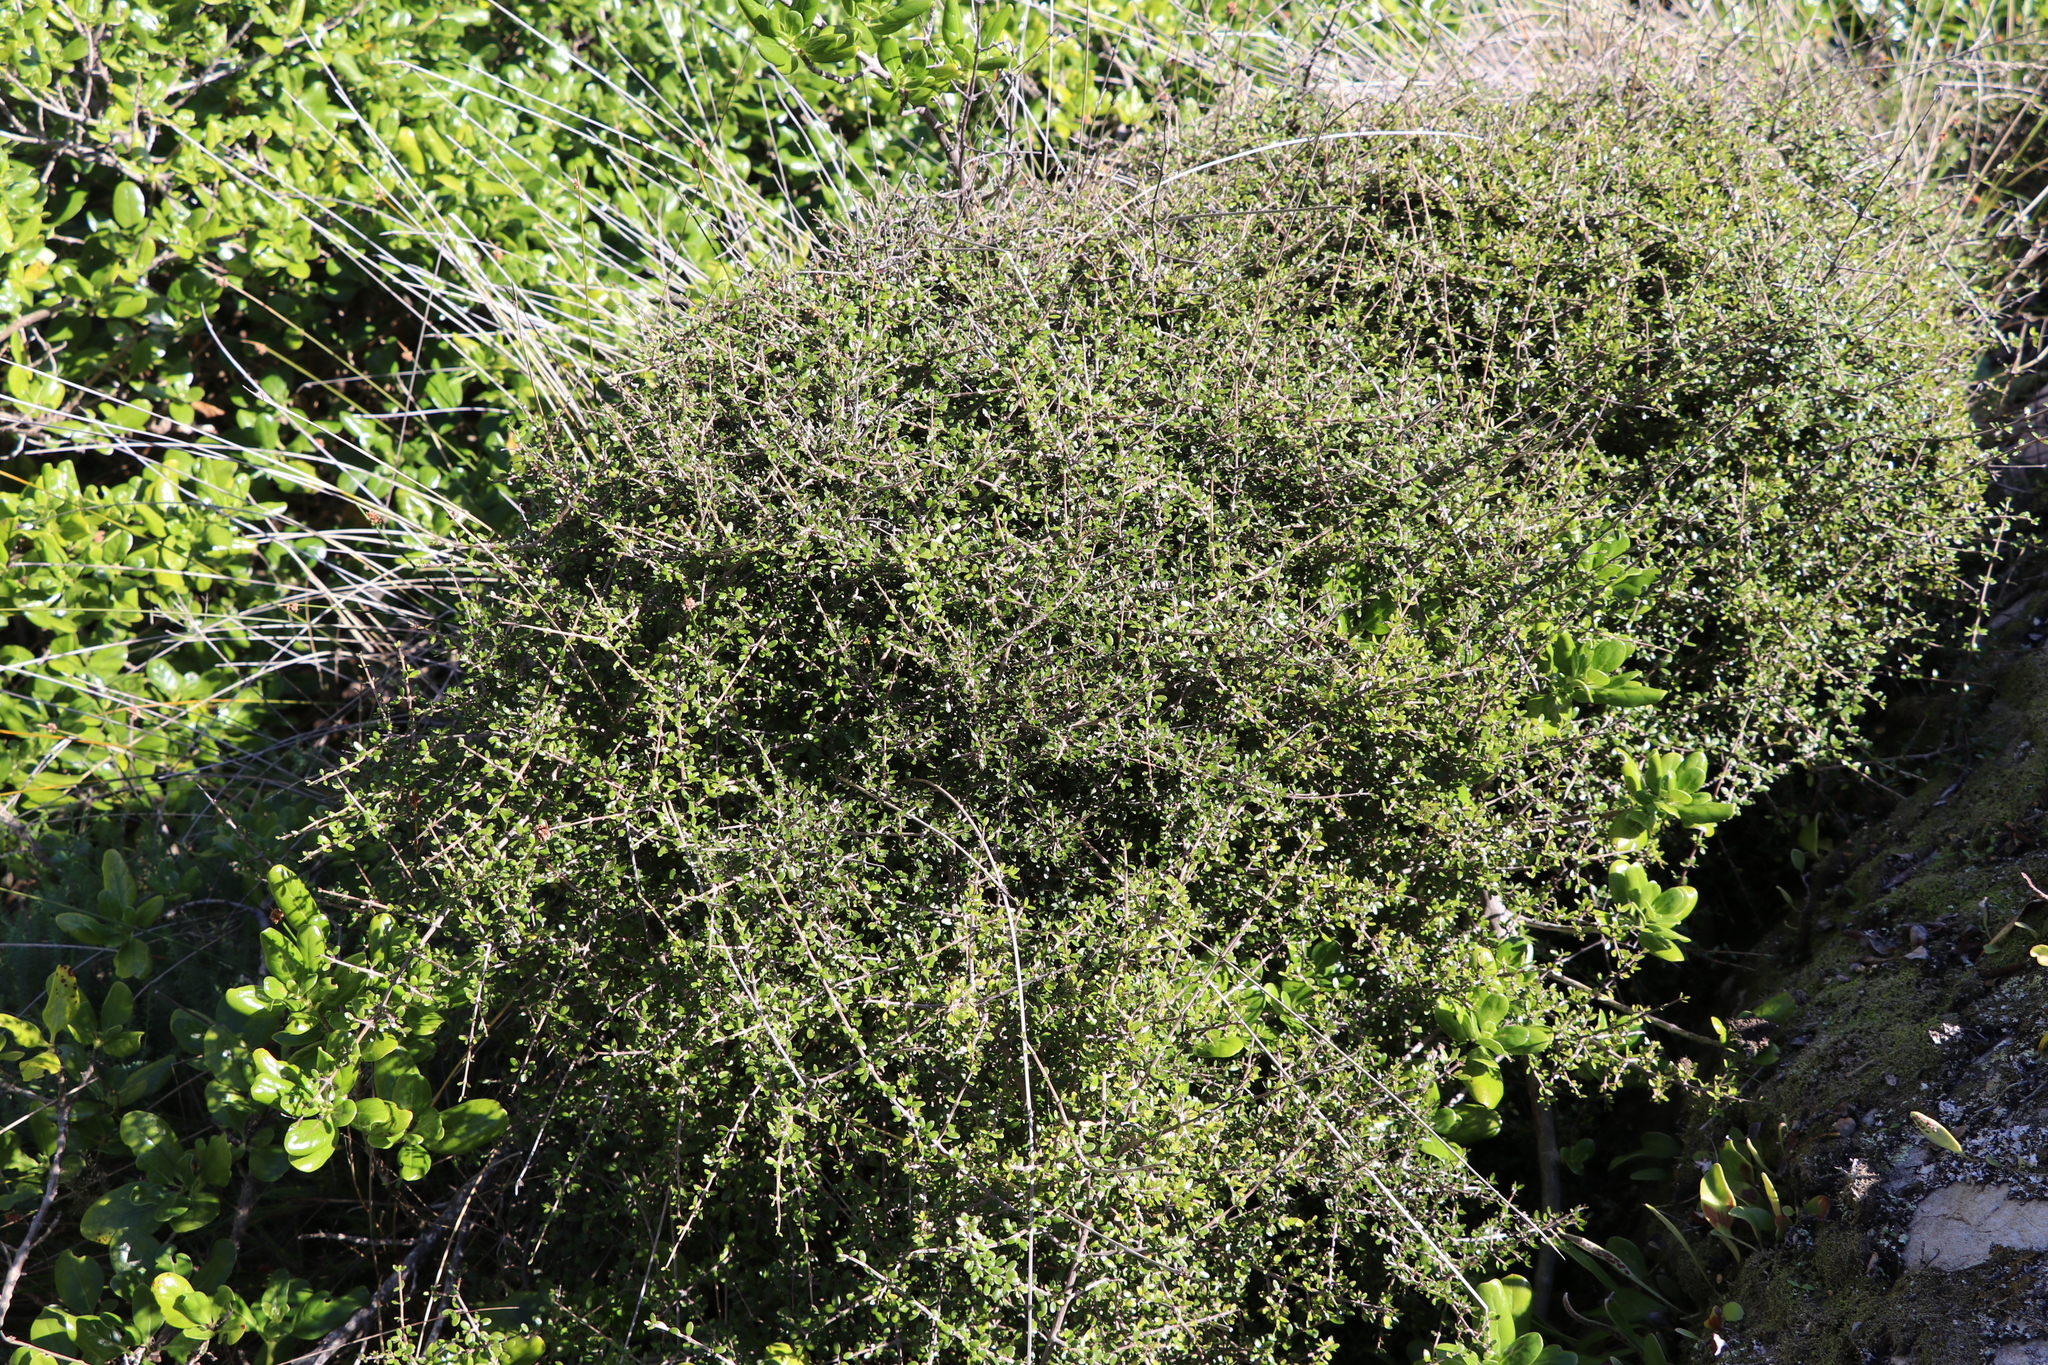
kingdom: Plantae
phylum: Tracheophyta
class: Magnoliopsida
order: Gentianales
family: Rubiaceae
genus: Coprosma
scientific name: Coprosma propinqua
